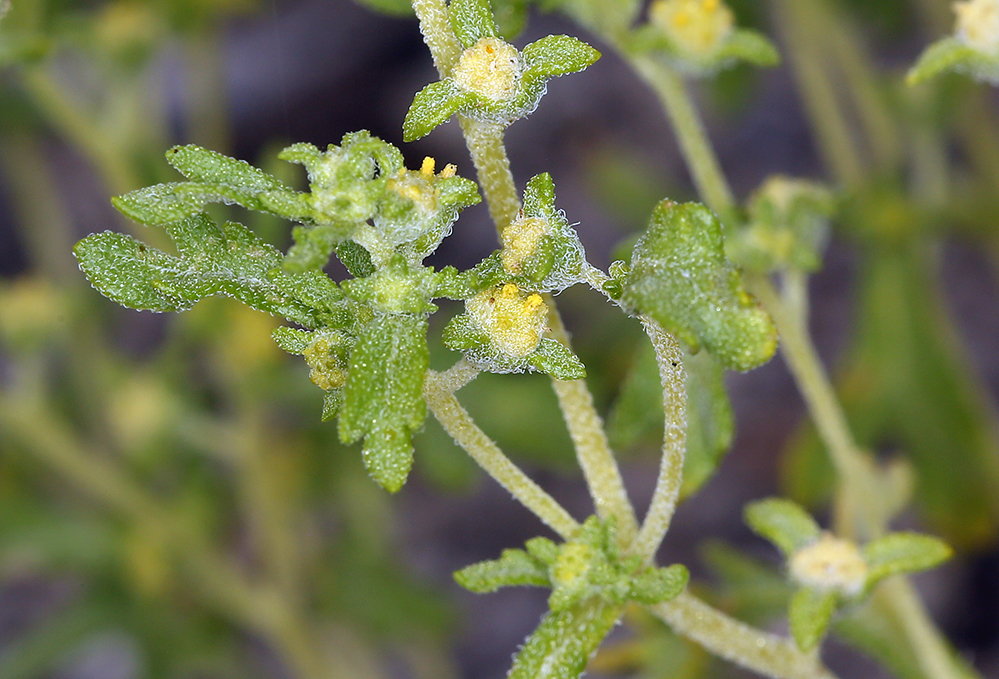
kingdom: Plantae
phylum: Tracheophyta
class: Magnoliopsida
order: Asterales
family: Asteraceae
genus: Euphrosyne
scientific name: Euphrosyne nevadensis
